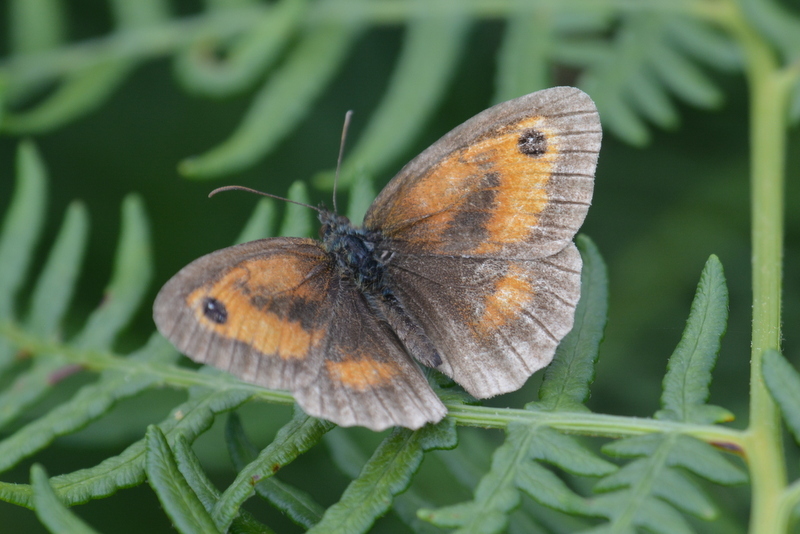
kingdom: Animalia
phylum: Arthropoda
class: Insecta
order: Lepidoptera
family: Nymphalidae
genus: Pyronia
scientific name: Pyronia tithonus
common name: Gatekeeper
